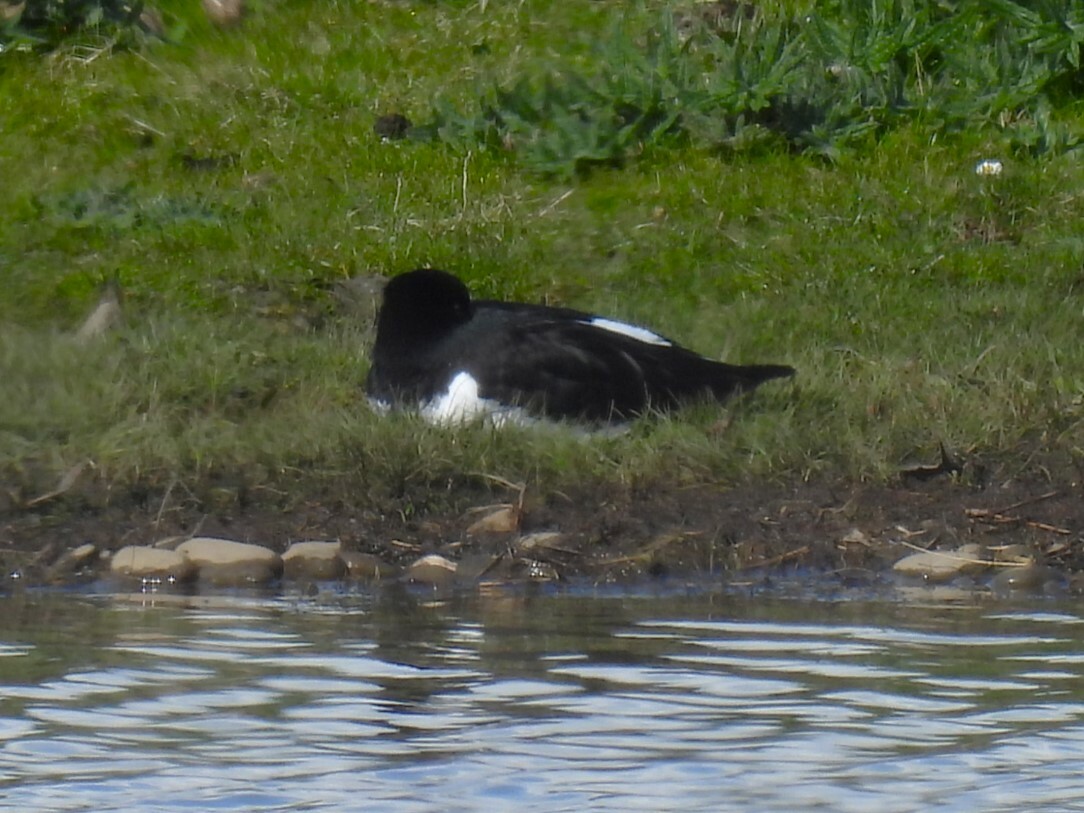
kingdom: Animalia
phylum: Chordata
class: Aves
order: Charadriiformes
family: Haematopodidae
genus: Haematopus
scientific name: Haematopus ostralegus
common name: Eurasian oystercatcher
